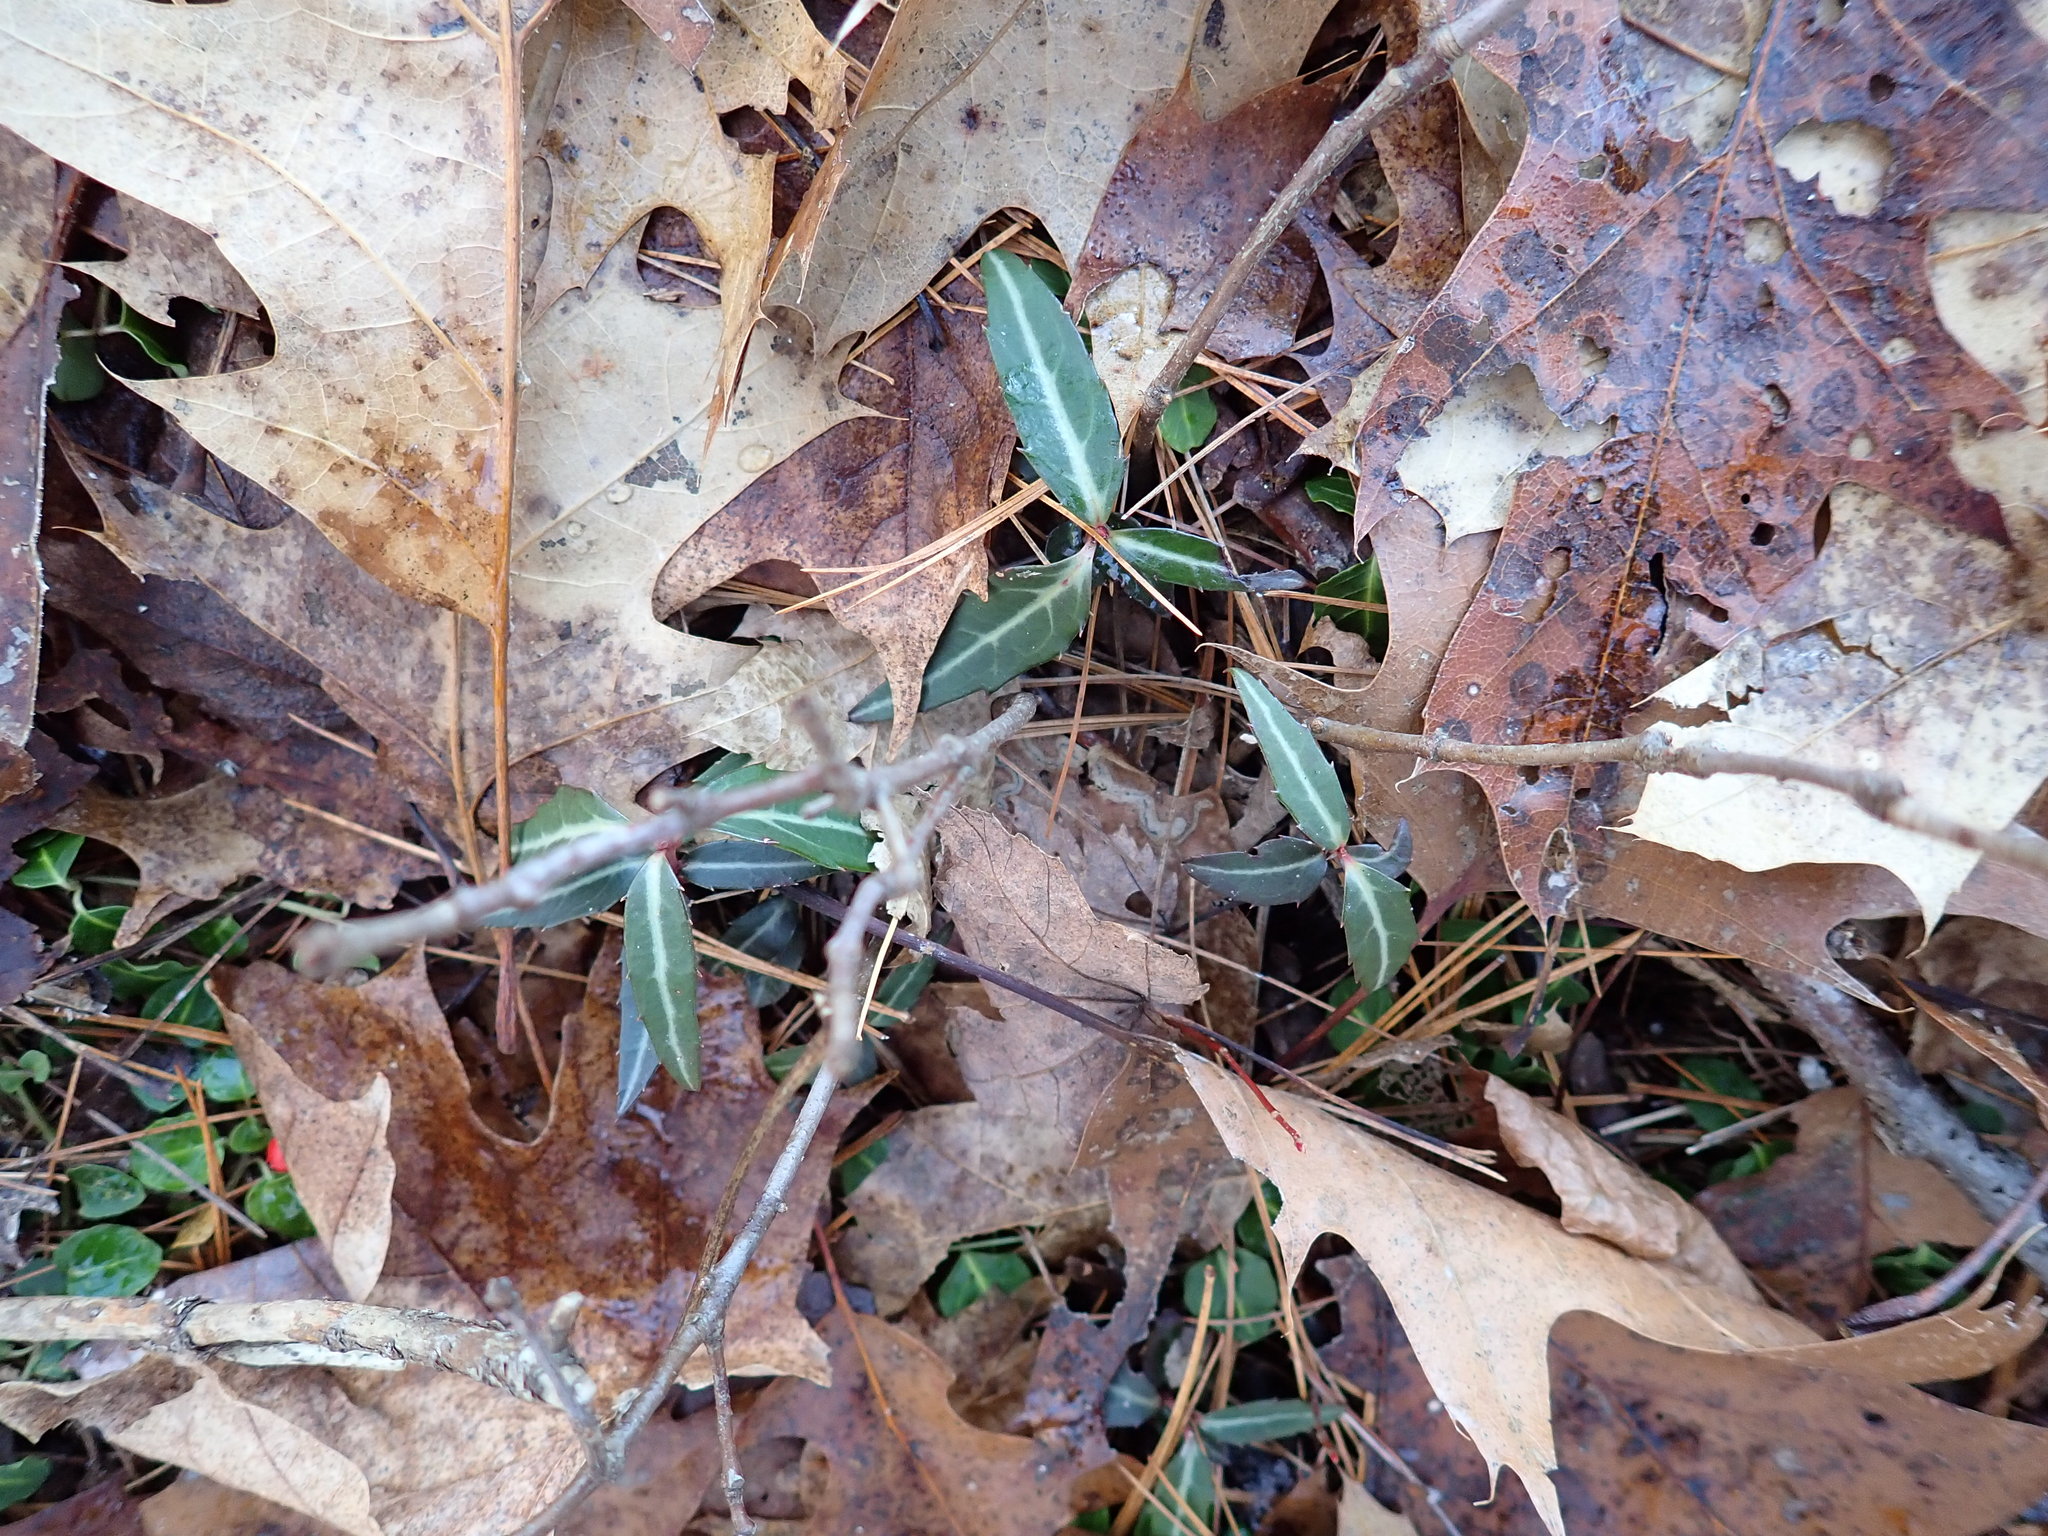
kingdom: Plantae
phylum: Tracheophyta
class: Magnoliopsida
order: Ericales
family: Ericaceae
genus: Chimaphila
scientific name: Chimaphila maculata
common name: Spotted pipsissewa
